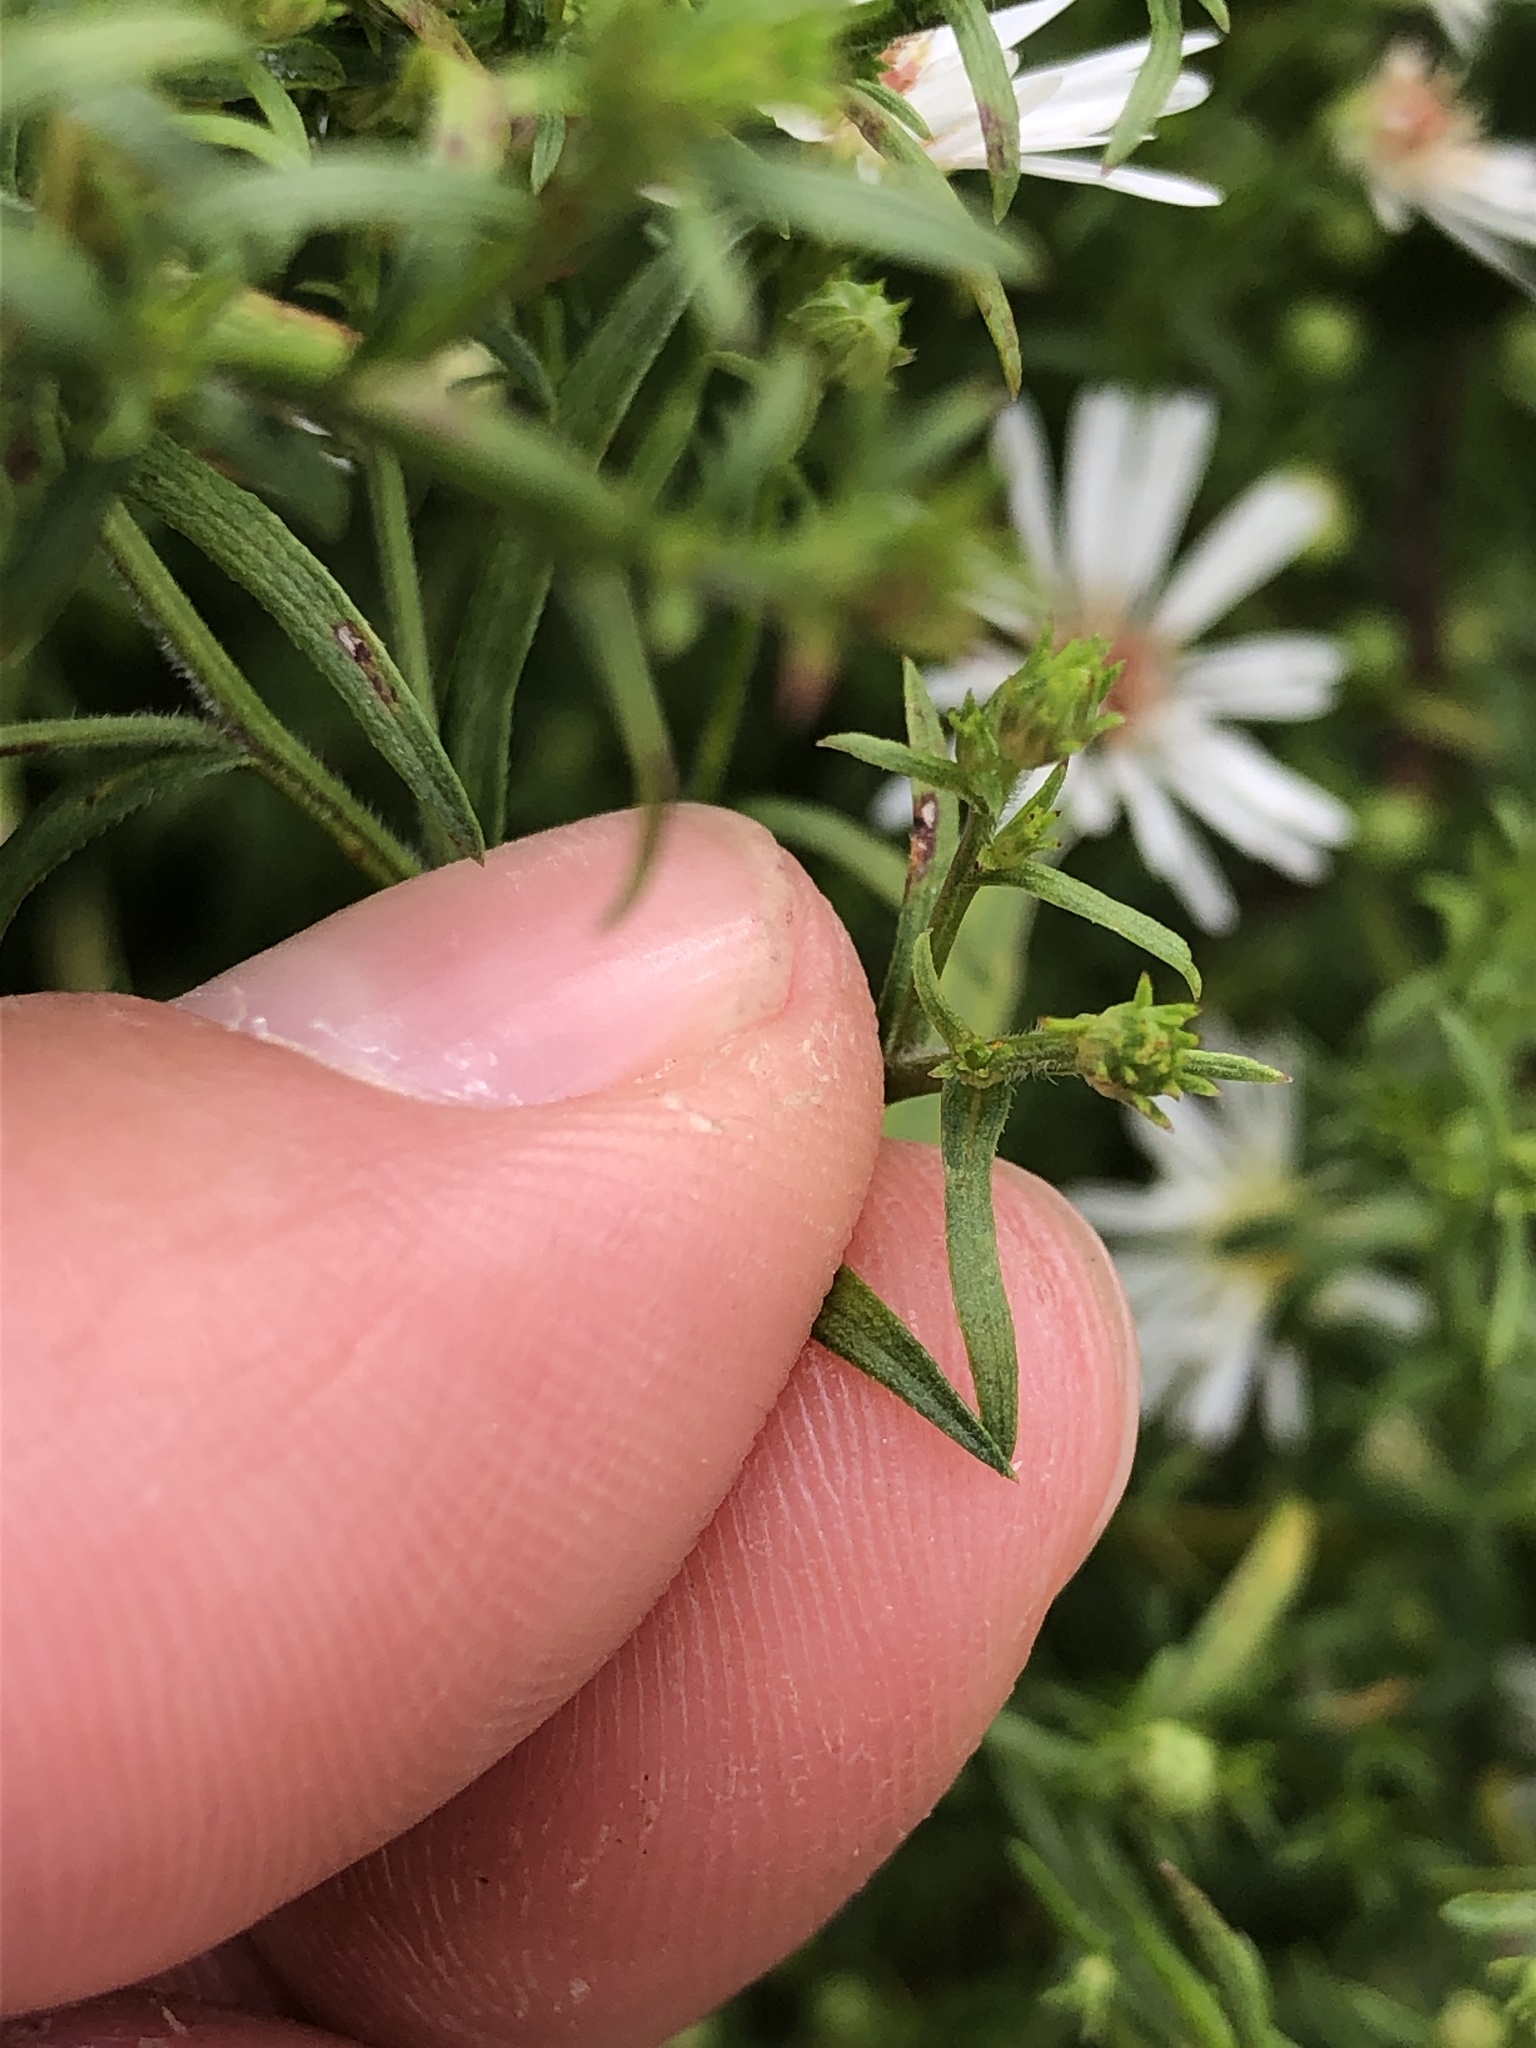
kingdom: Plantae
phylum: Tracheophyta
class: Magnoliopsida
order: Asterales
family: Asteraceae
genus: Symphyotrichum
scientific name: Symphyotrichum lanceolatum
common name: Panicled aster
